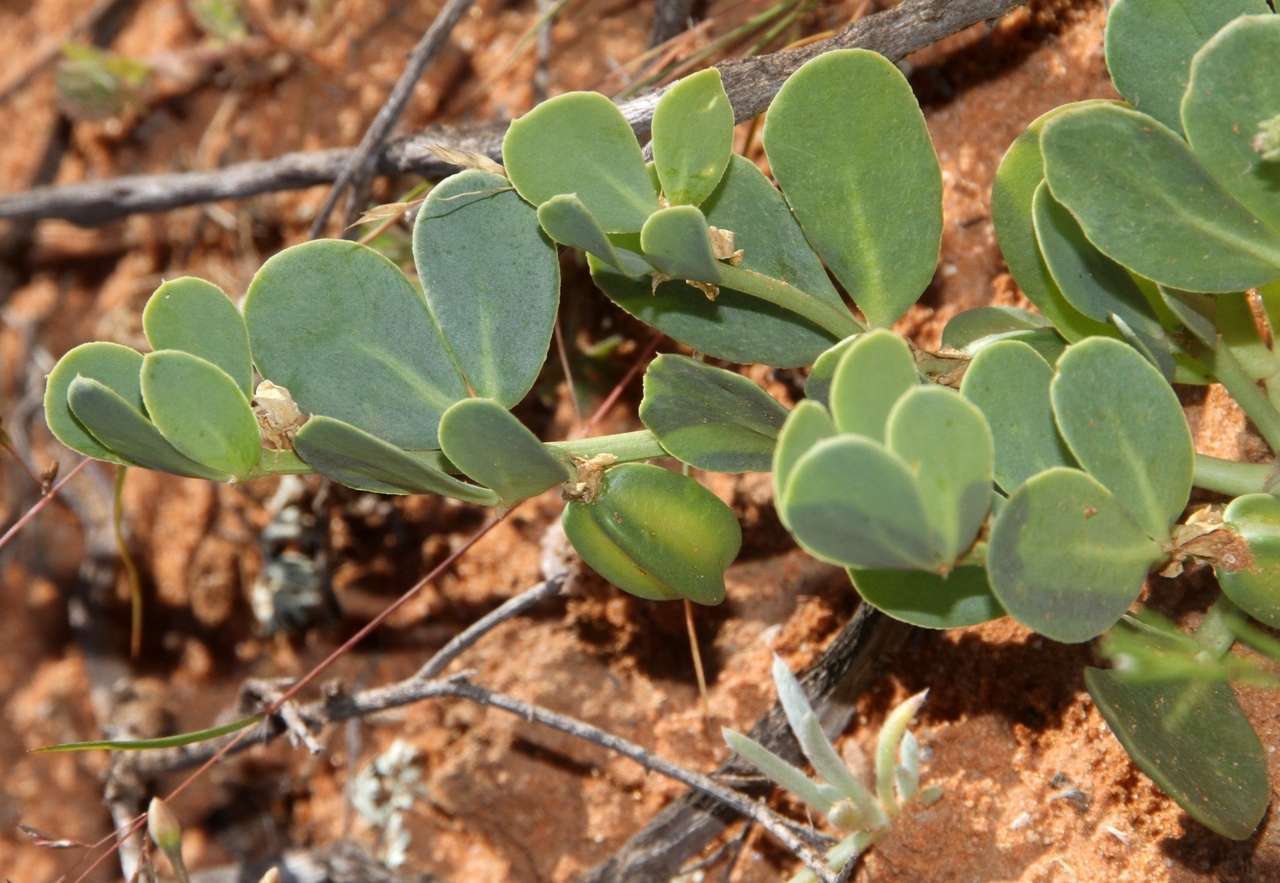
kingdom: Plantae
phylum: Tracheophyta
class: Magnoliopsida
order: Zygophyllales
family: Zygophyllaceae
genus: Roepera
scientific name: Roepera glauca
